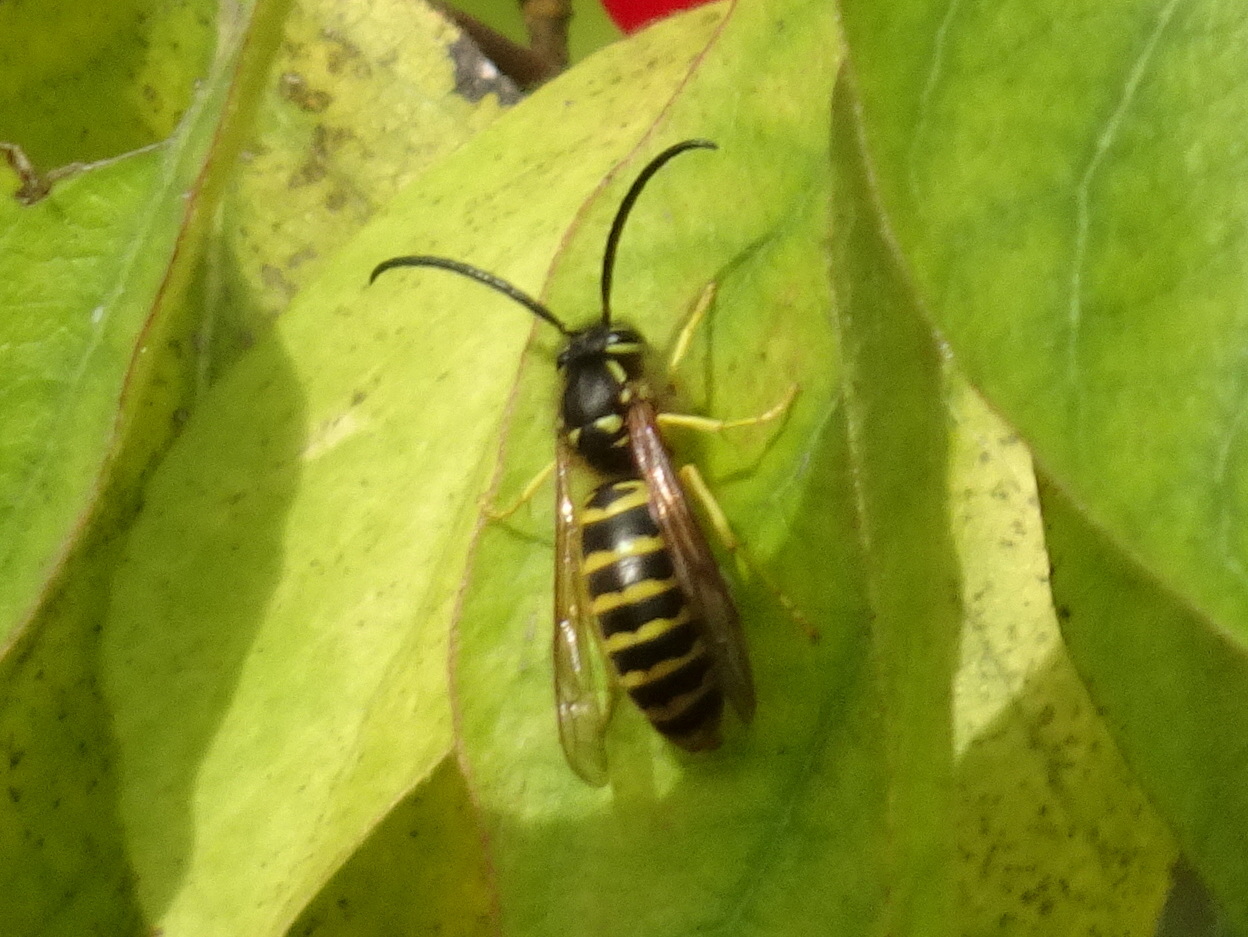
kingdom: Animalia
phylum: Arthropoda
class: Insecta
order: Hymenoptera
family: Vespidae
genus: Vespula
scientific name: Vespula maculifrons
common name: Eastern yellowjacket
